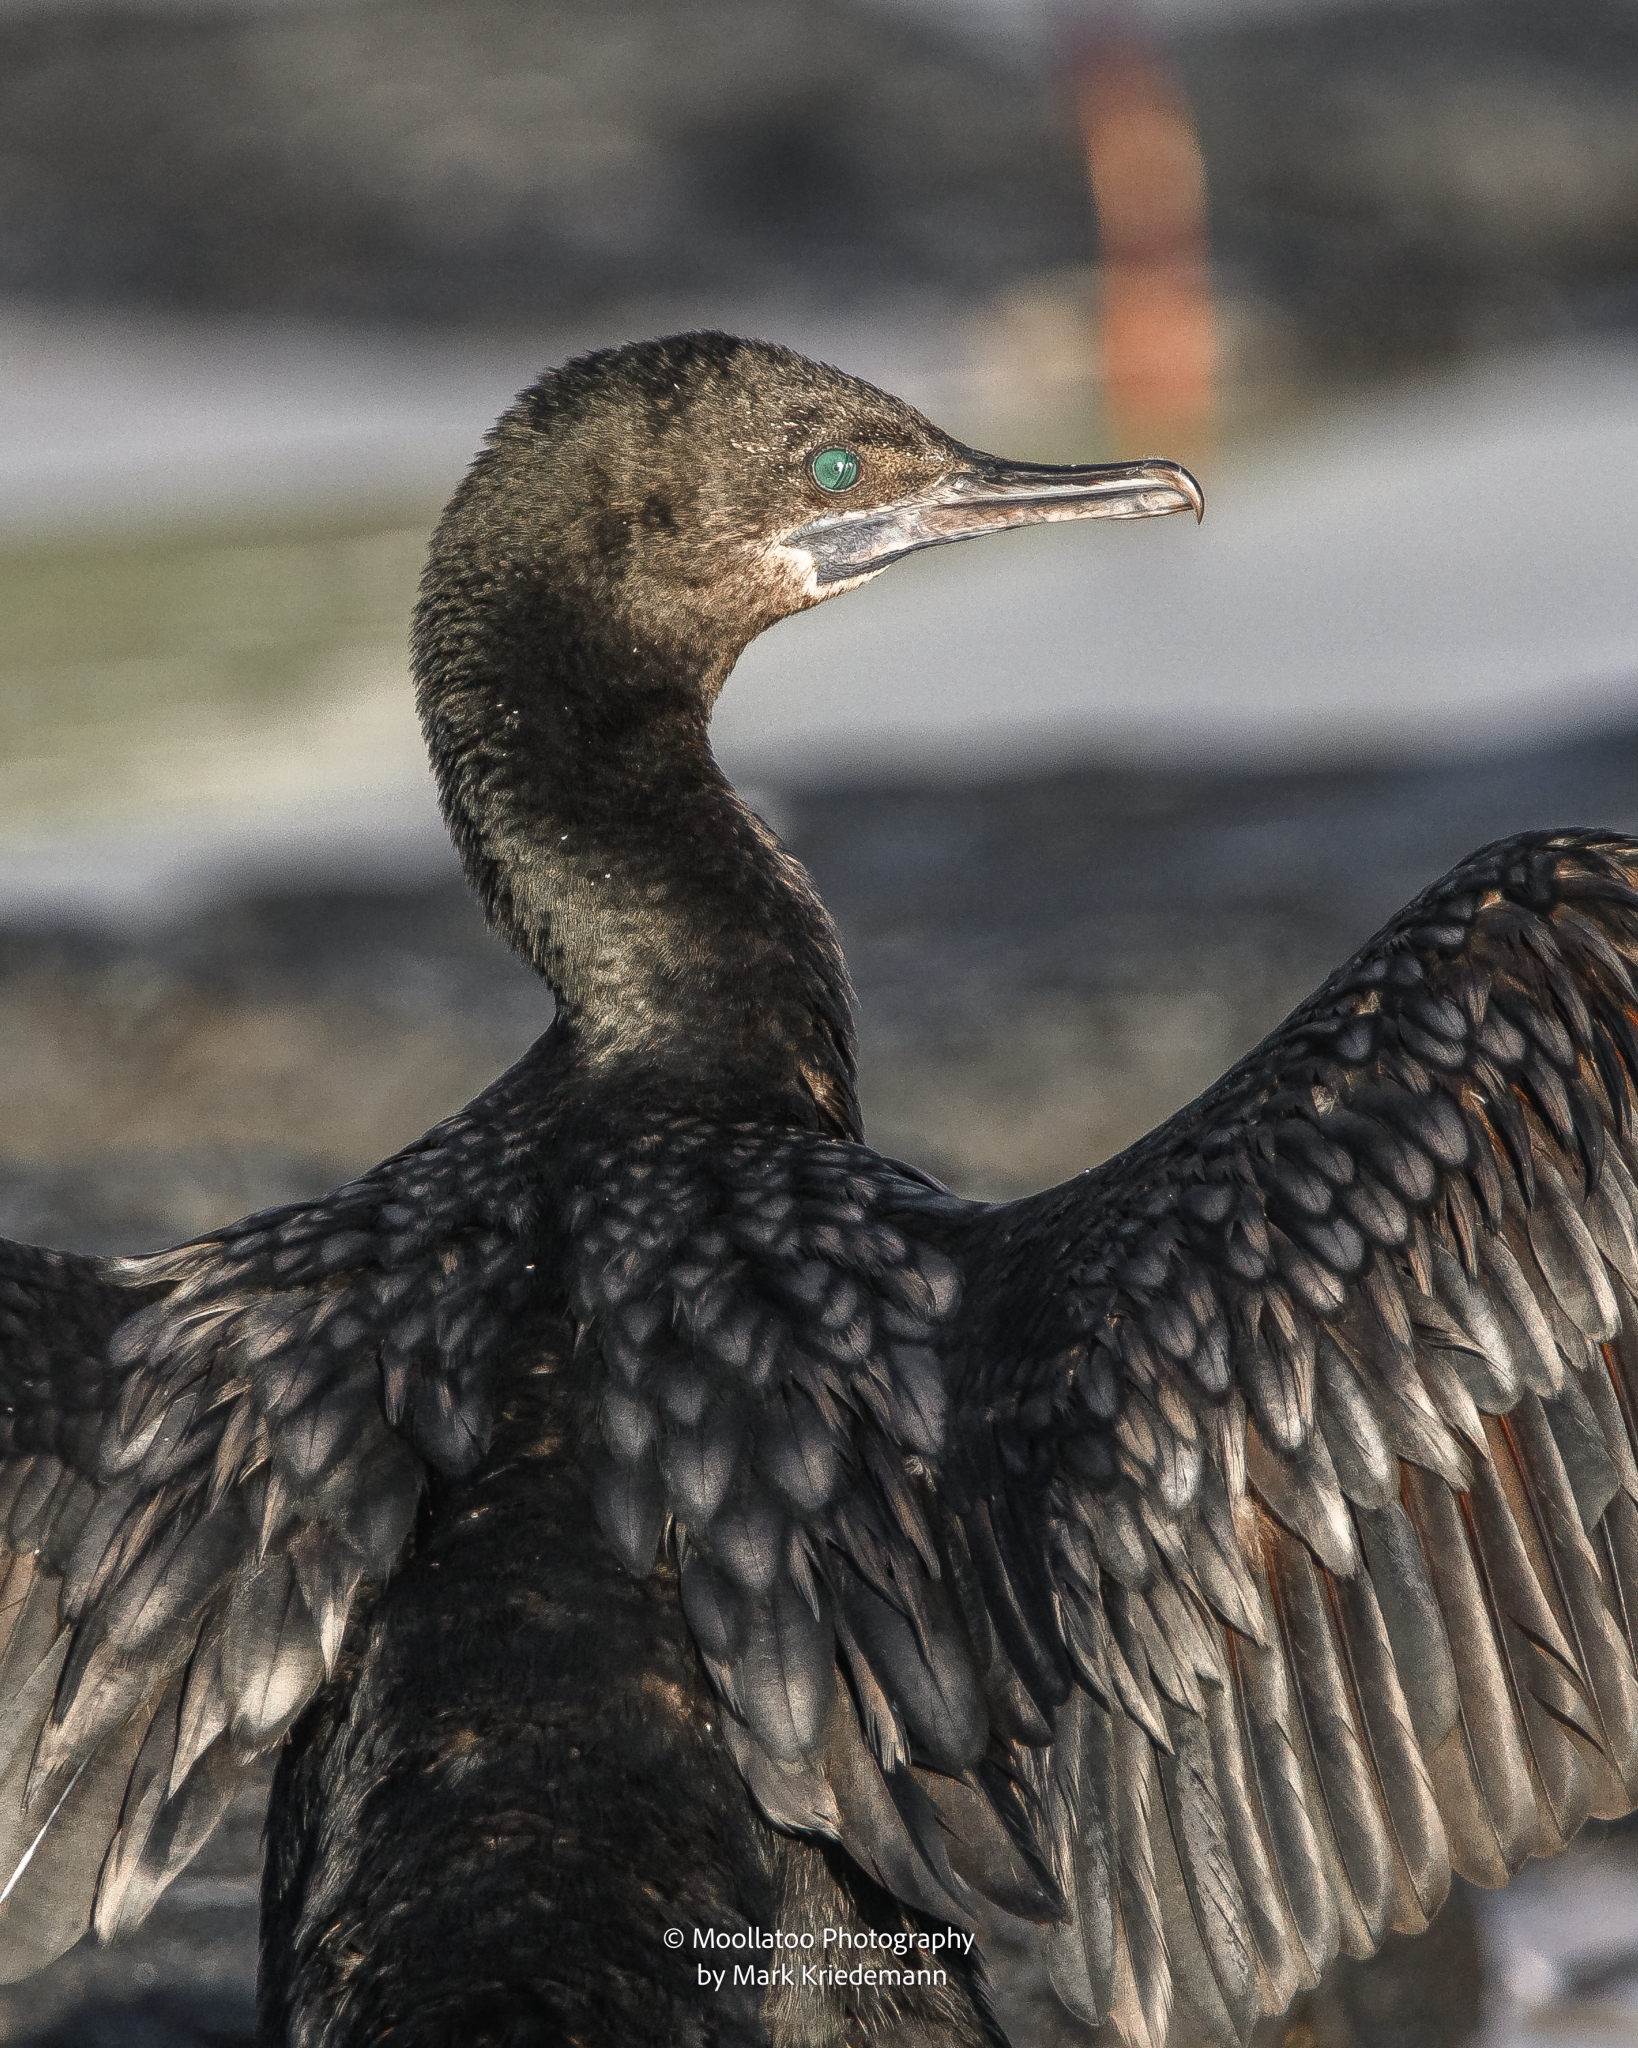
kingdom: Animalia
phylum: Chordata
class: Aves
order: Suliformes
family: Phalacrocoracidae
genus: Phalacrocorax
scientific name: Phalacrocorax sulcirostris
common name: Little black cormorant
